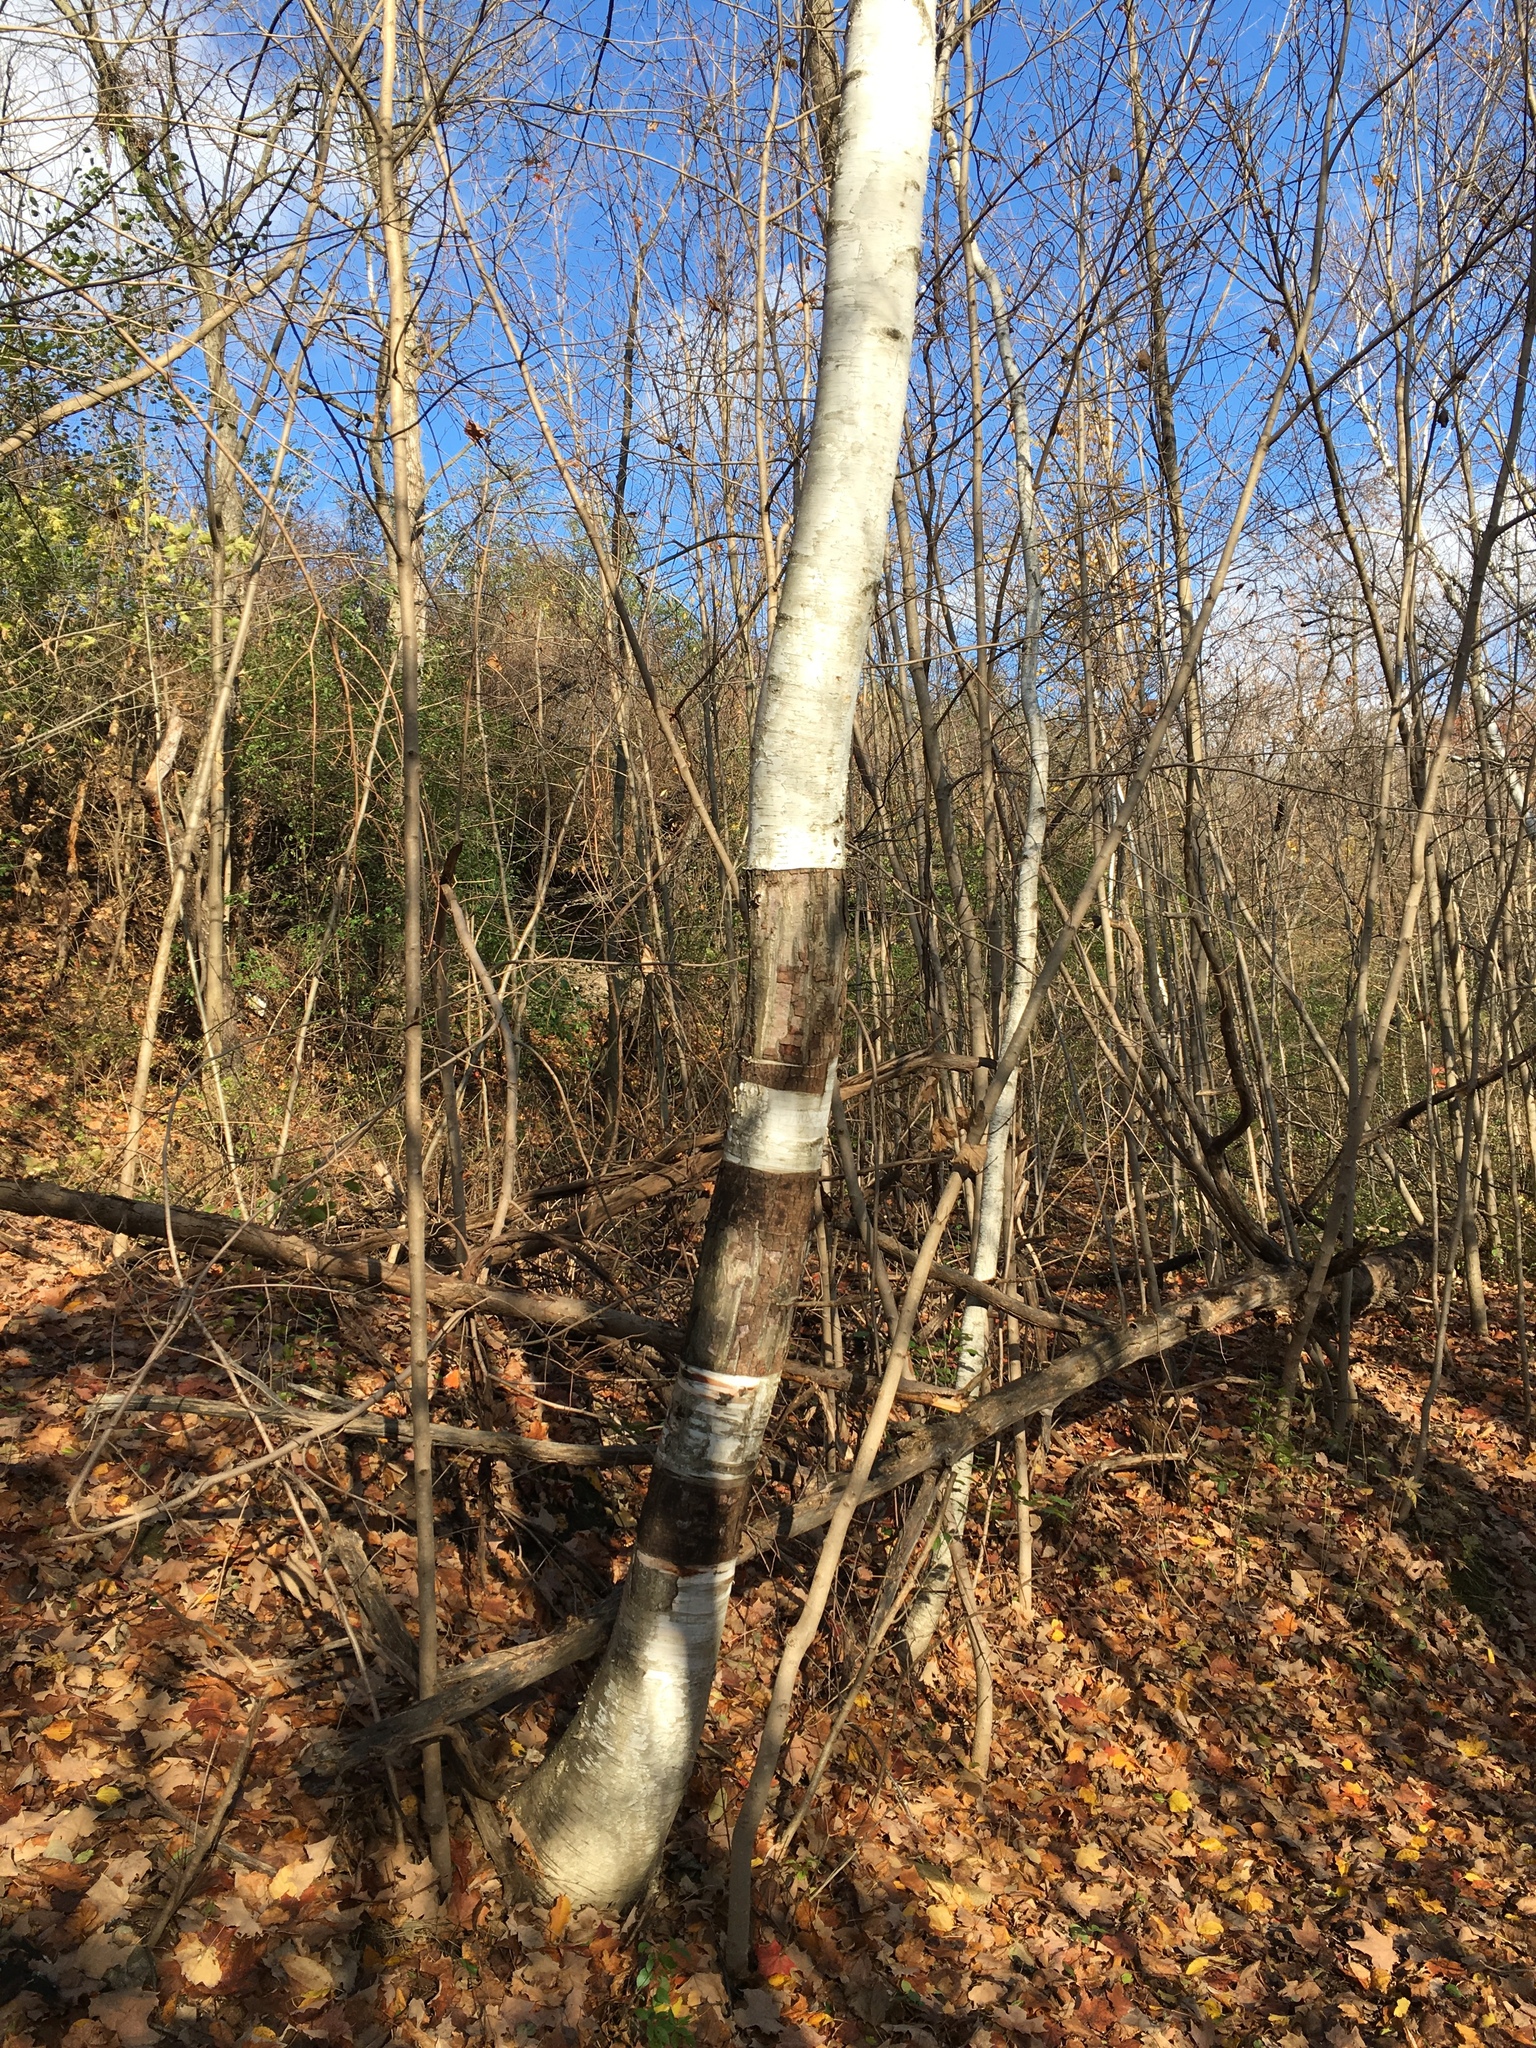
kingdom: Plantae
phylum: Tracheophyta
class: Magnoliopsida
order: Fagales
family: Betulaceae
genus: Betula
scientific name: Betula papyrifera
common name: Paper birch
